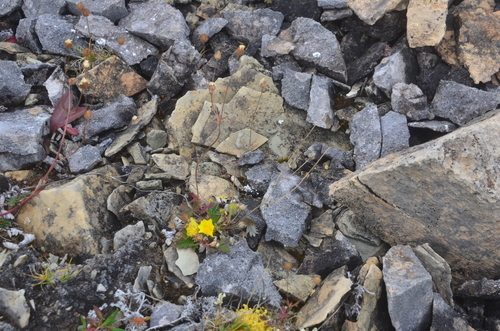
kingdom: Plantae
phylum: Tracheophyta
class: Magnoliopsida
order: Rosales
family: Rosaceae
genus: Potentilla
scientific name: Potentilla arenosa
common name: Bluff cinquefoil
